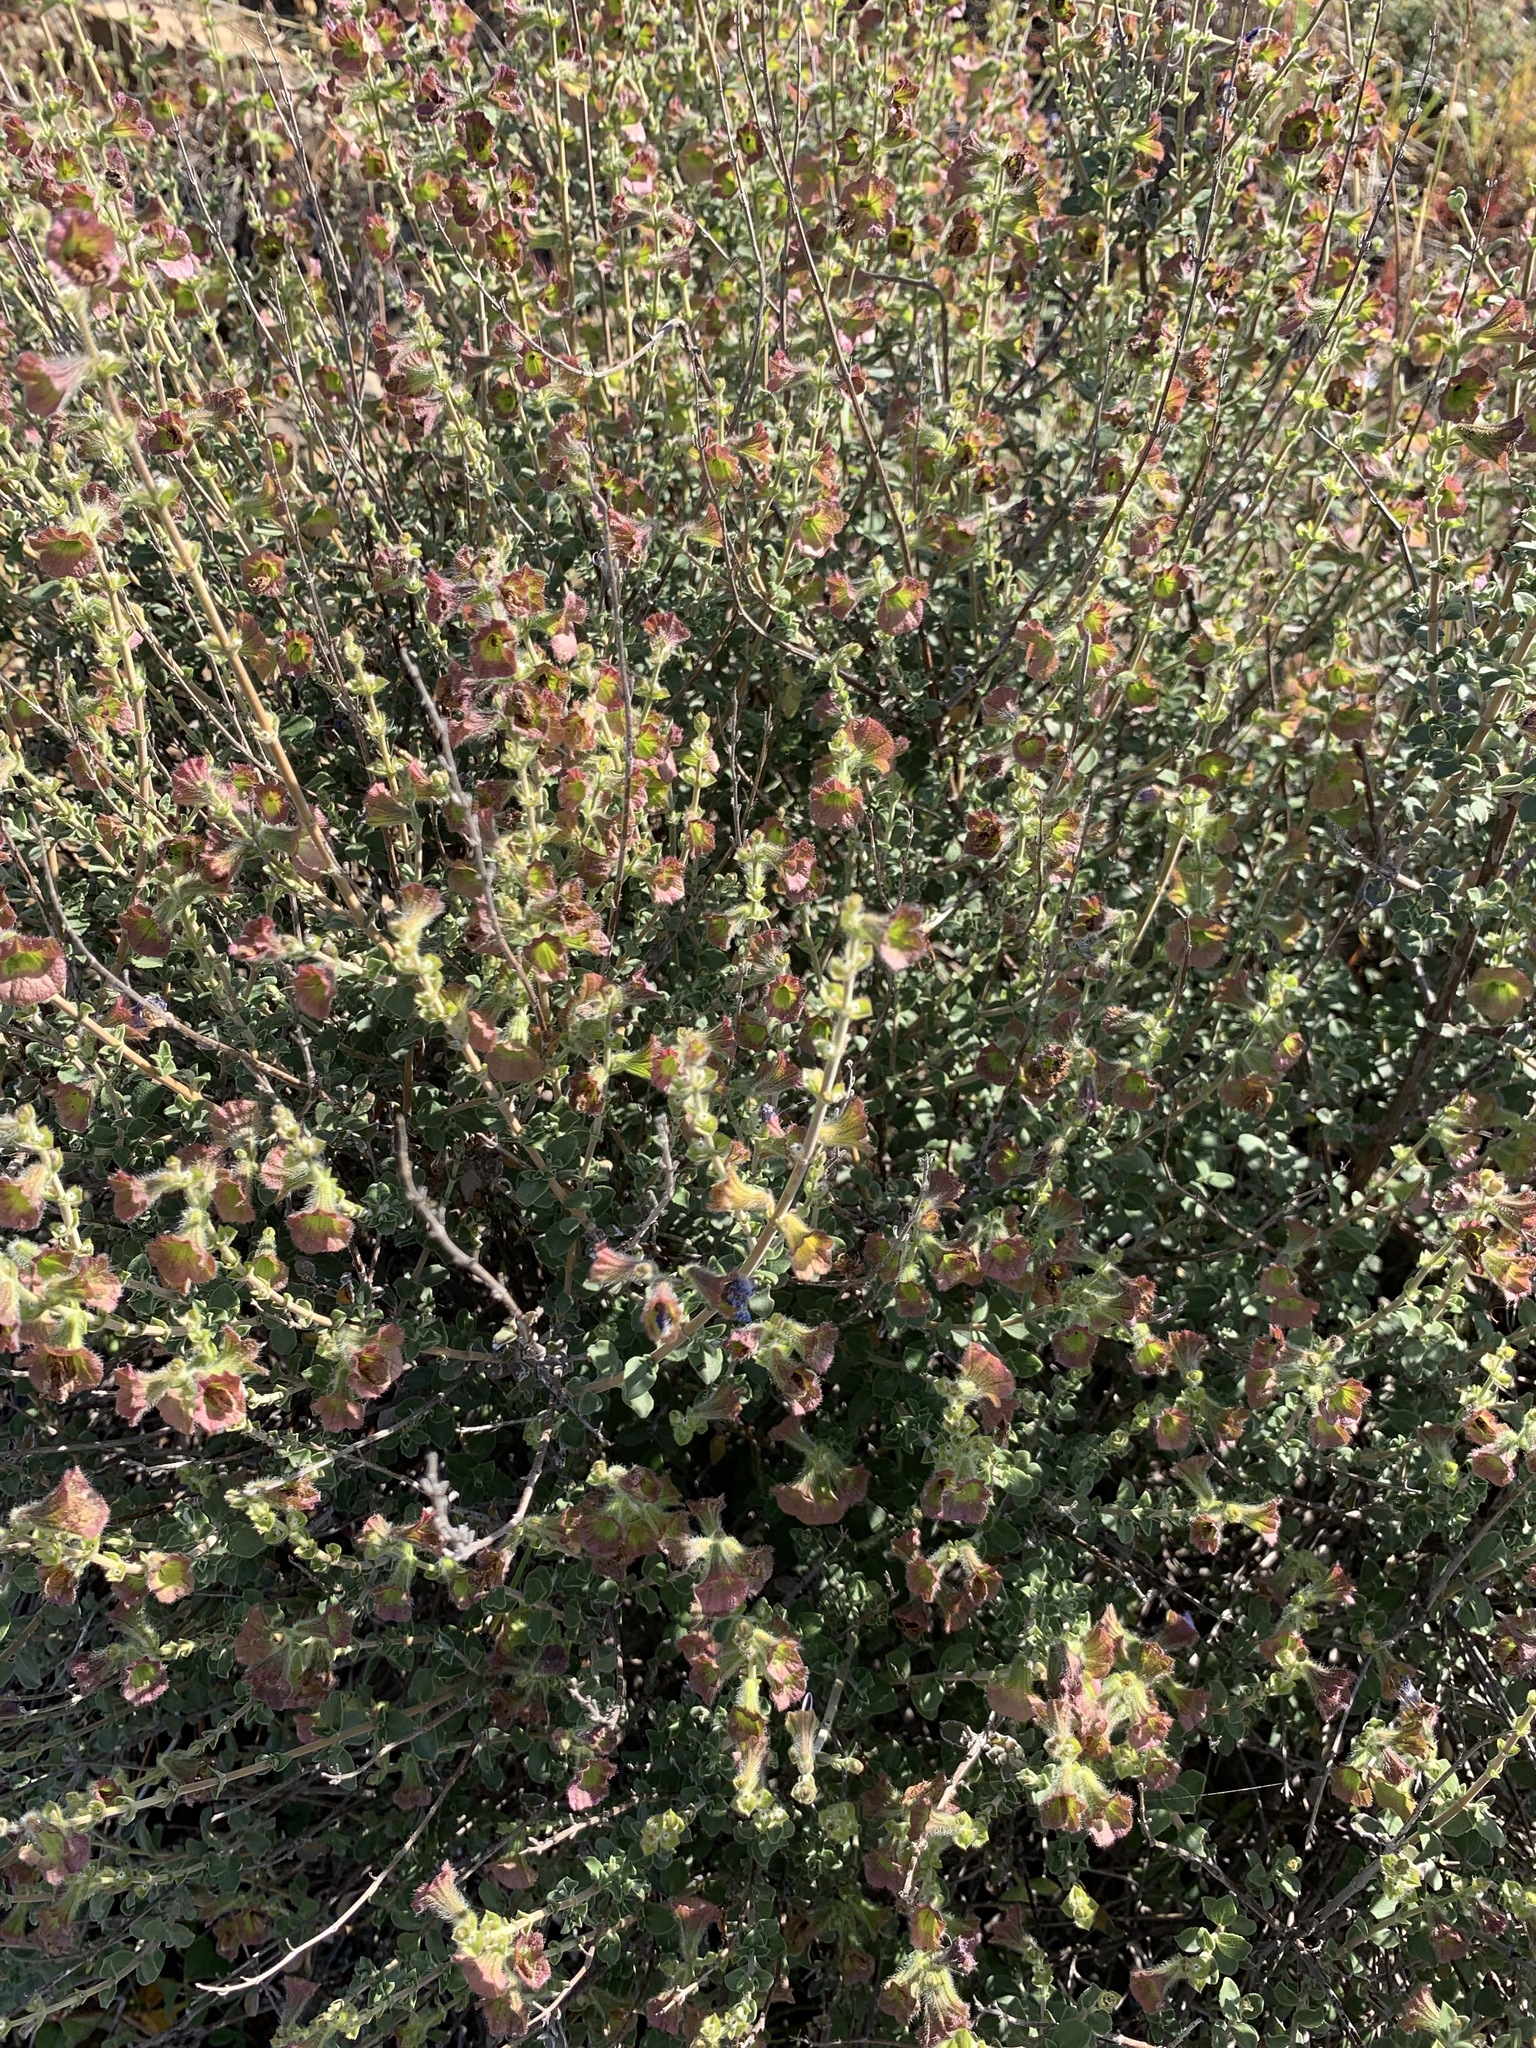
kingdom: Plantae
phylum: Tracheophyta
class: Magnoliopsida
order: Lamiales
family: Lamiaceae
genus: Salvia
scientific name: Salvia africana
